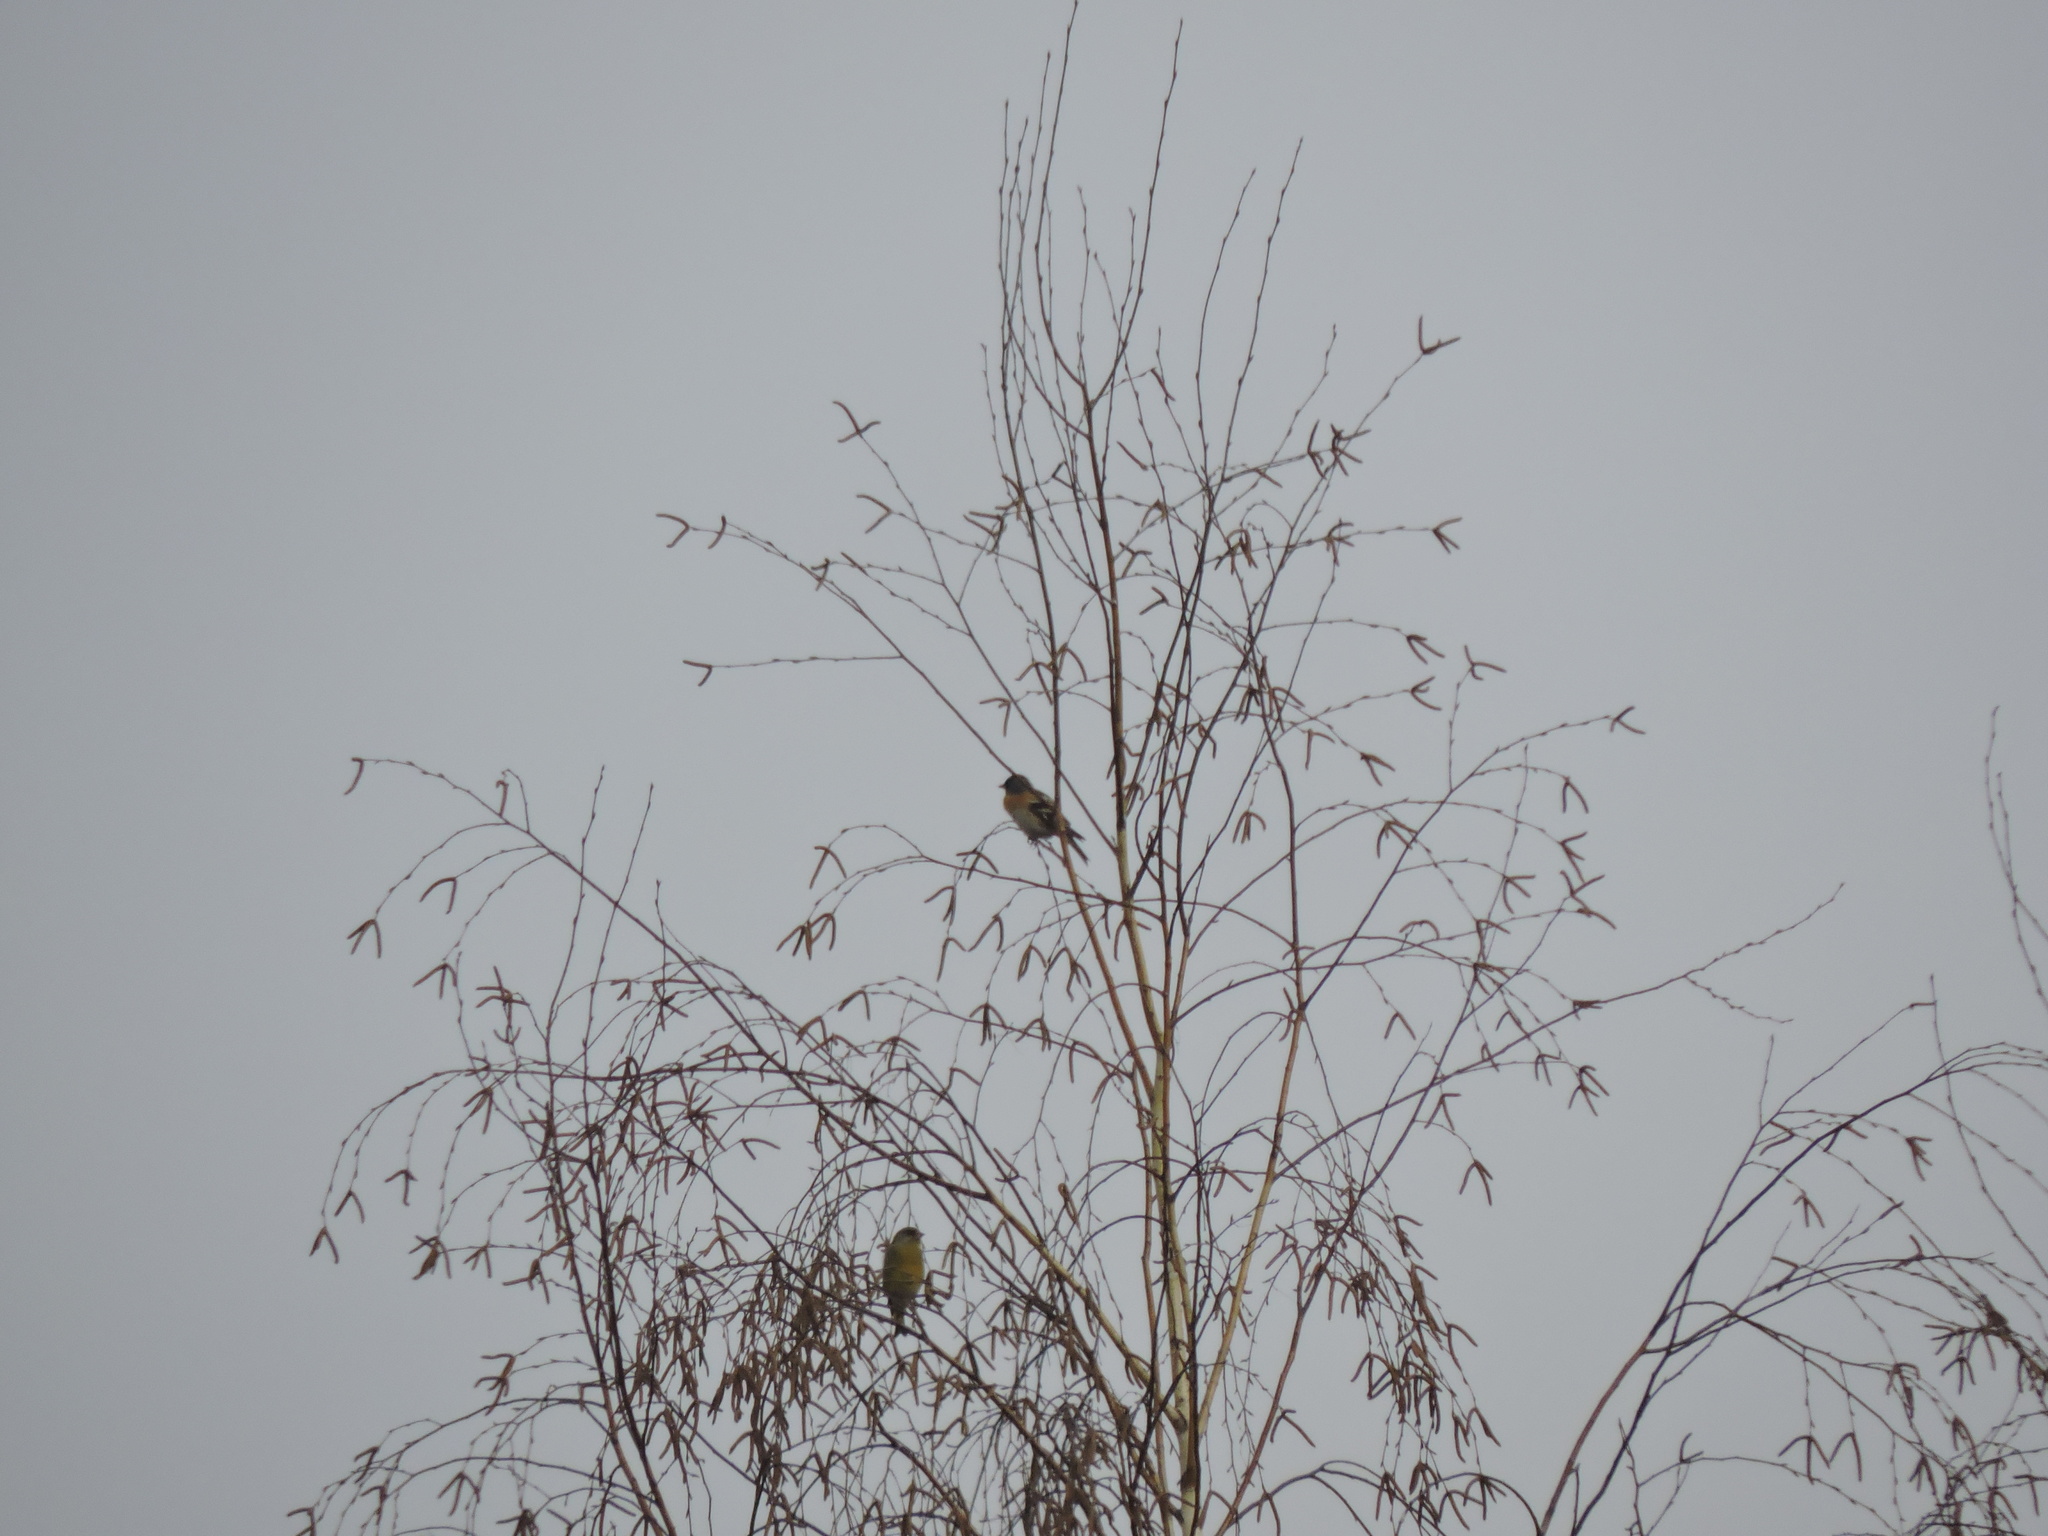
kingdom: Animalia
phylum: Chordata
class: Aves
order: Passeriformes
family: Fringillidae
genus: Fringilla
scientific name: Fringilla montifringilla
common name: Brambling
